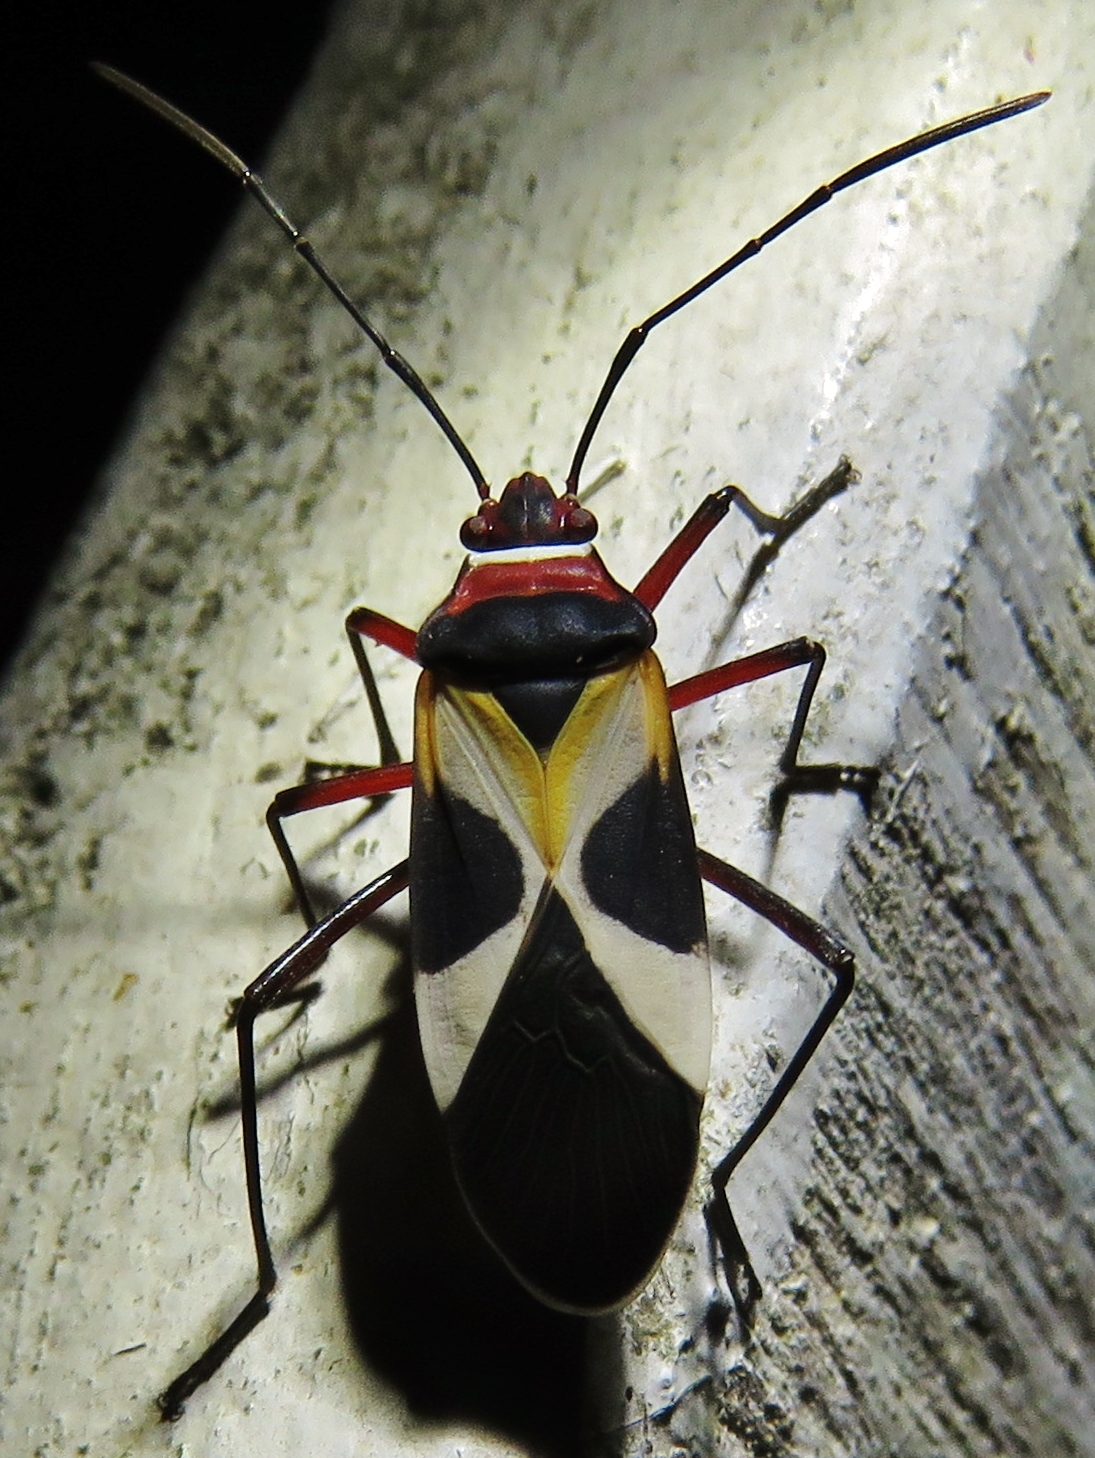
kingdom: Animalia
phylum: Arthropoda
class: Insecta
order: Hemiptera
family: Pyrrhocoridae
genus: Dysdercus
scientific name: Dysdercus concinnus
